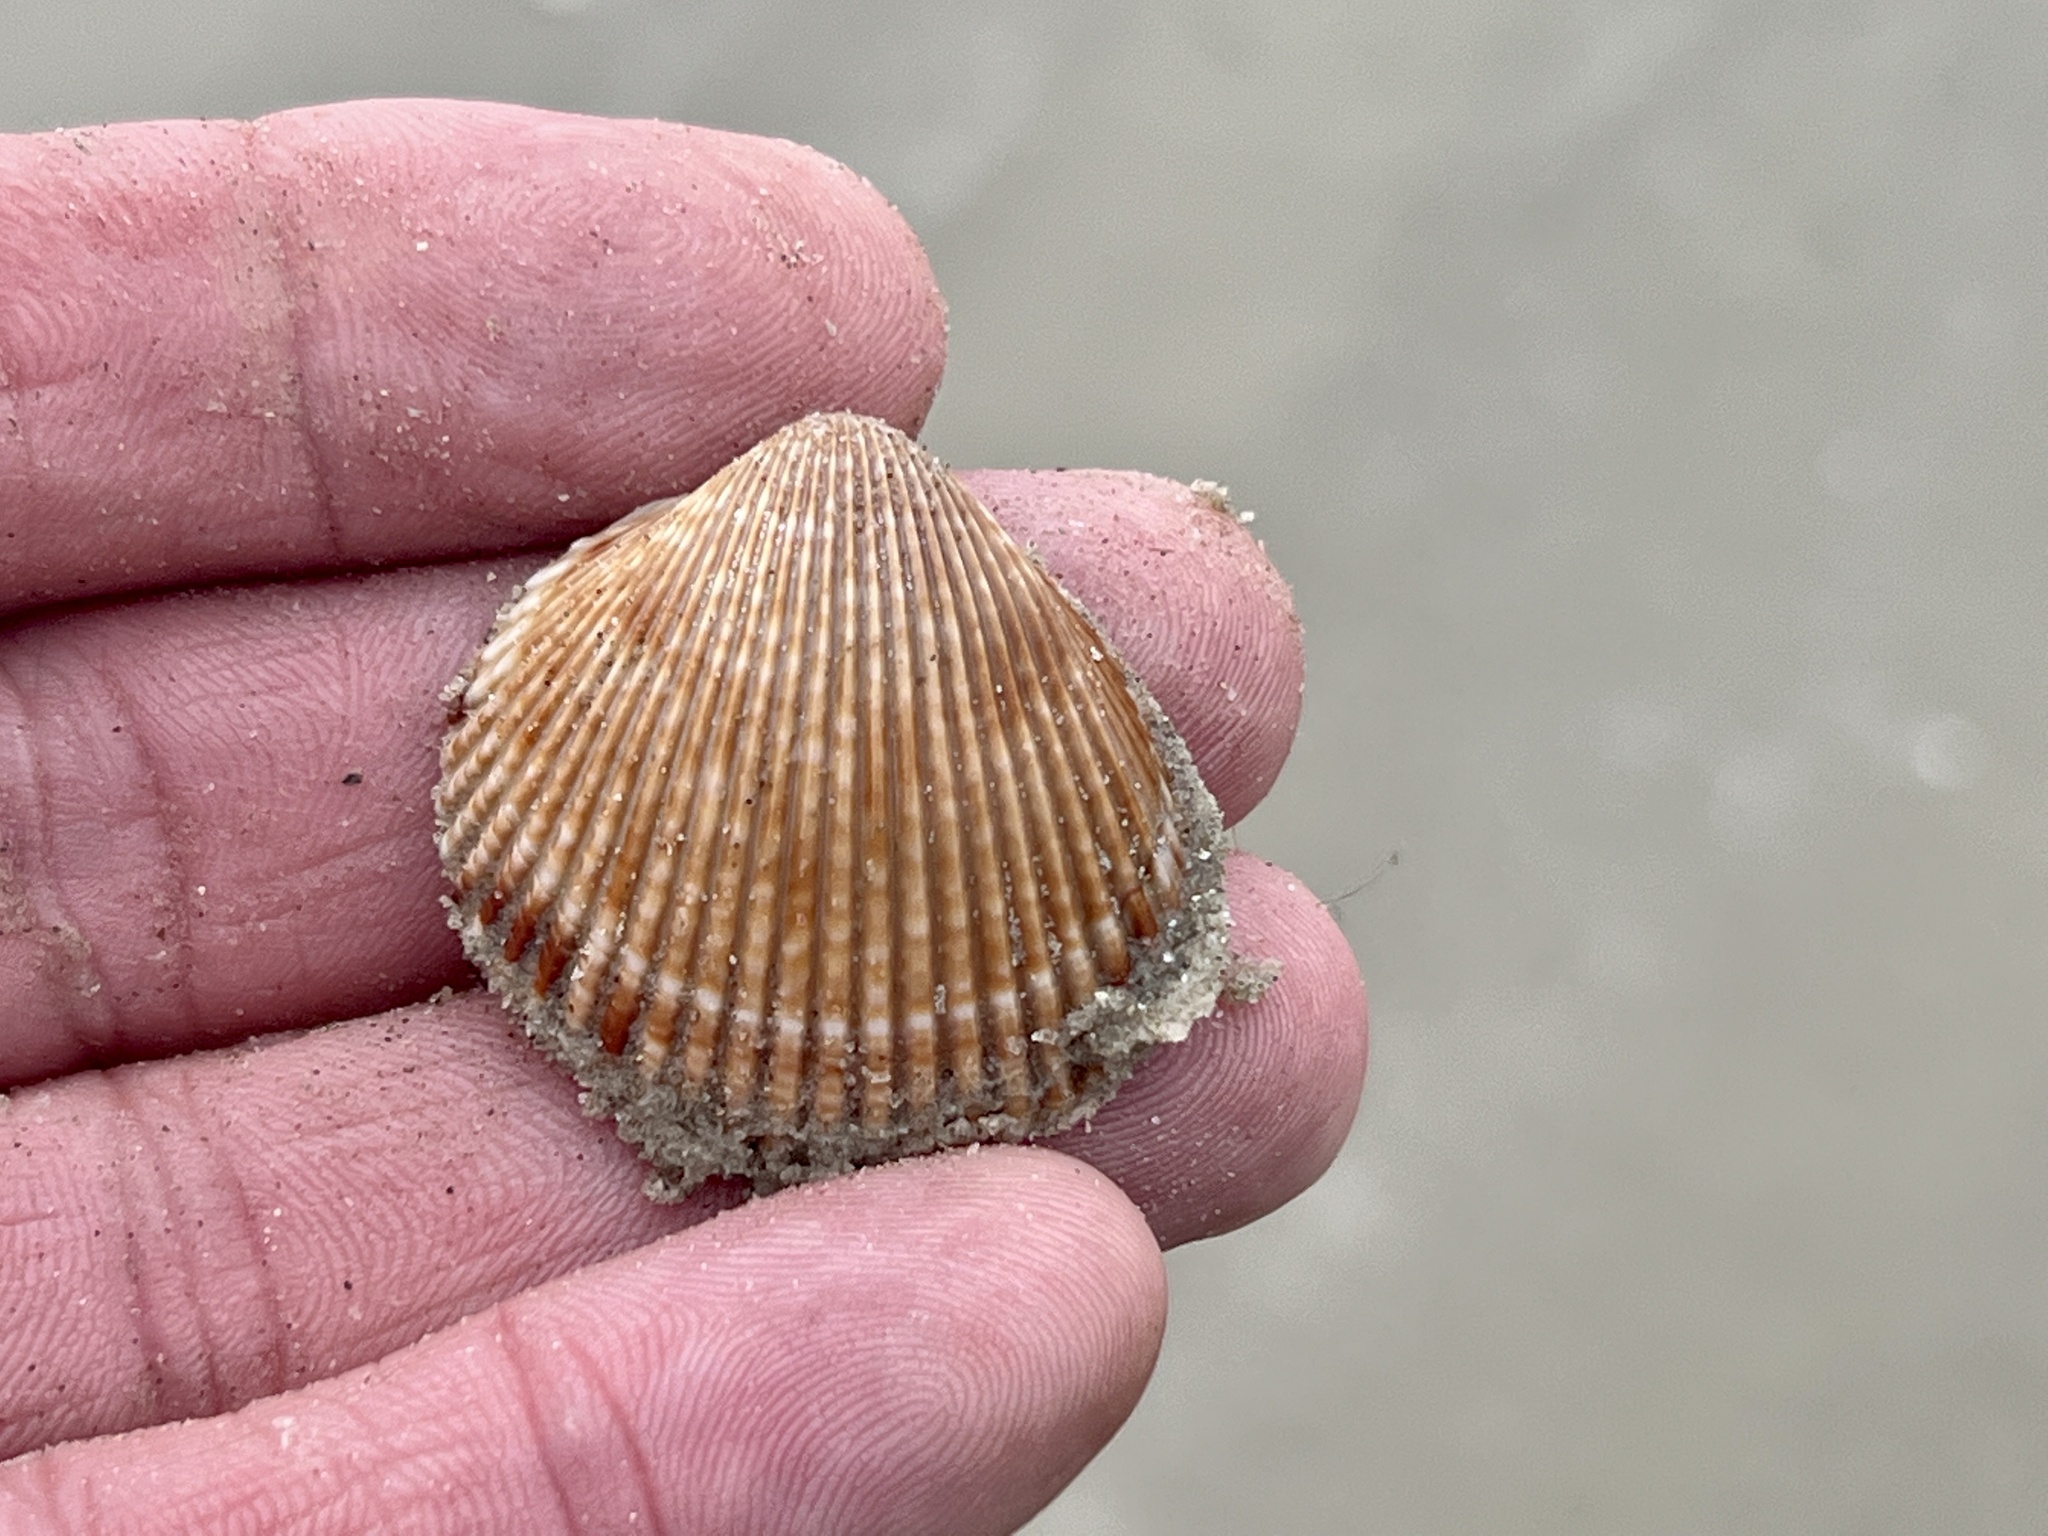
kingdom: Animalia
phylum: Mollusca
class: Bivalvia
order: Cardiida
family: Cardiidae
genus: Dinocardium
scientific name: Dinocardium robustum
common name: Atlantic giant cockle
